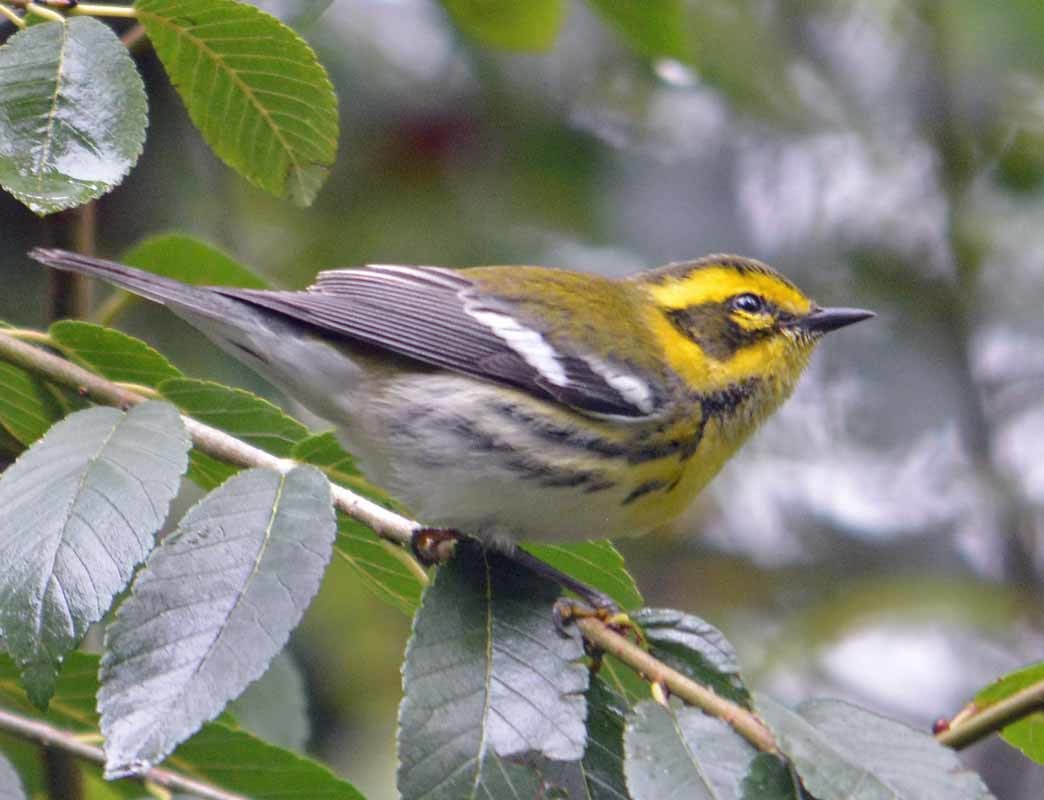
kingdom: Animalia
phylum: Chordata
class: Aves
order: Passeriformes
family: Parulidae
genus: Setophaga
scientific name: Setophaga townsendi
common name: Townsend's warbler
